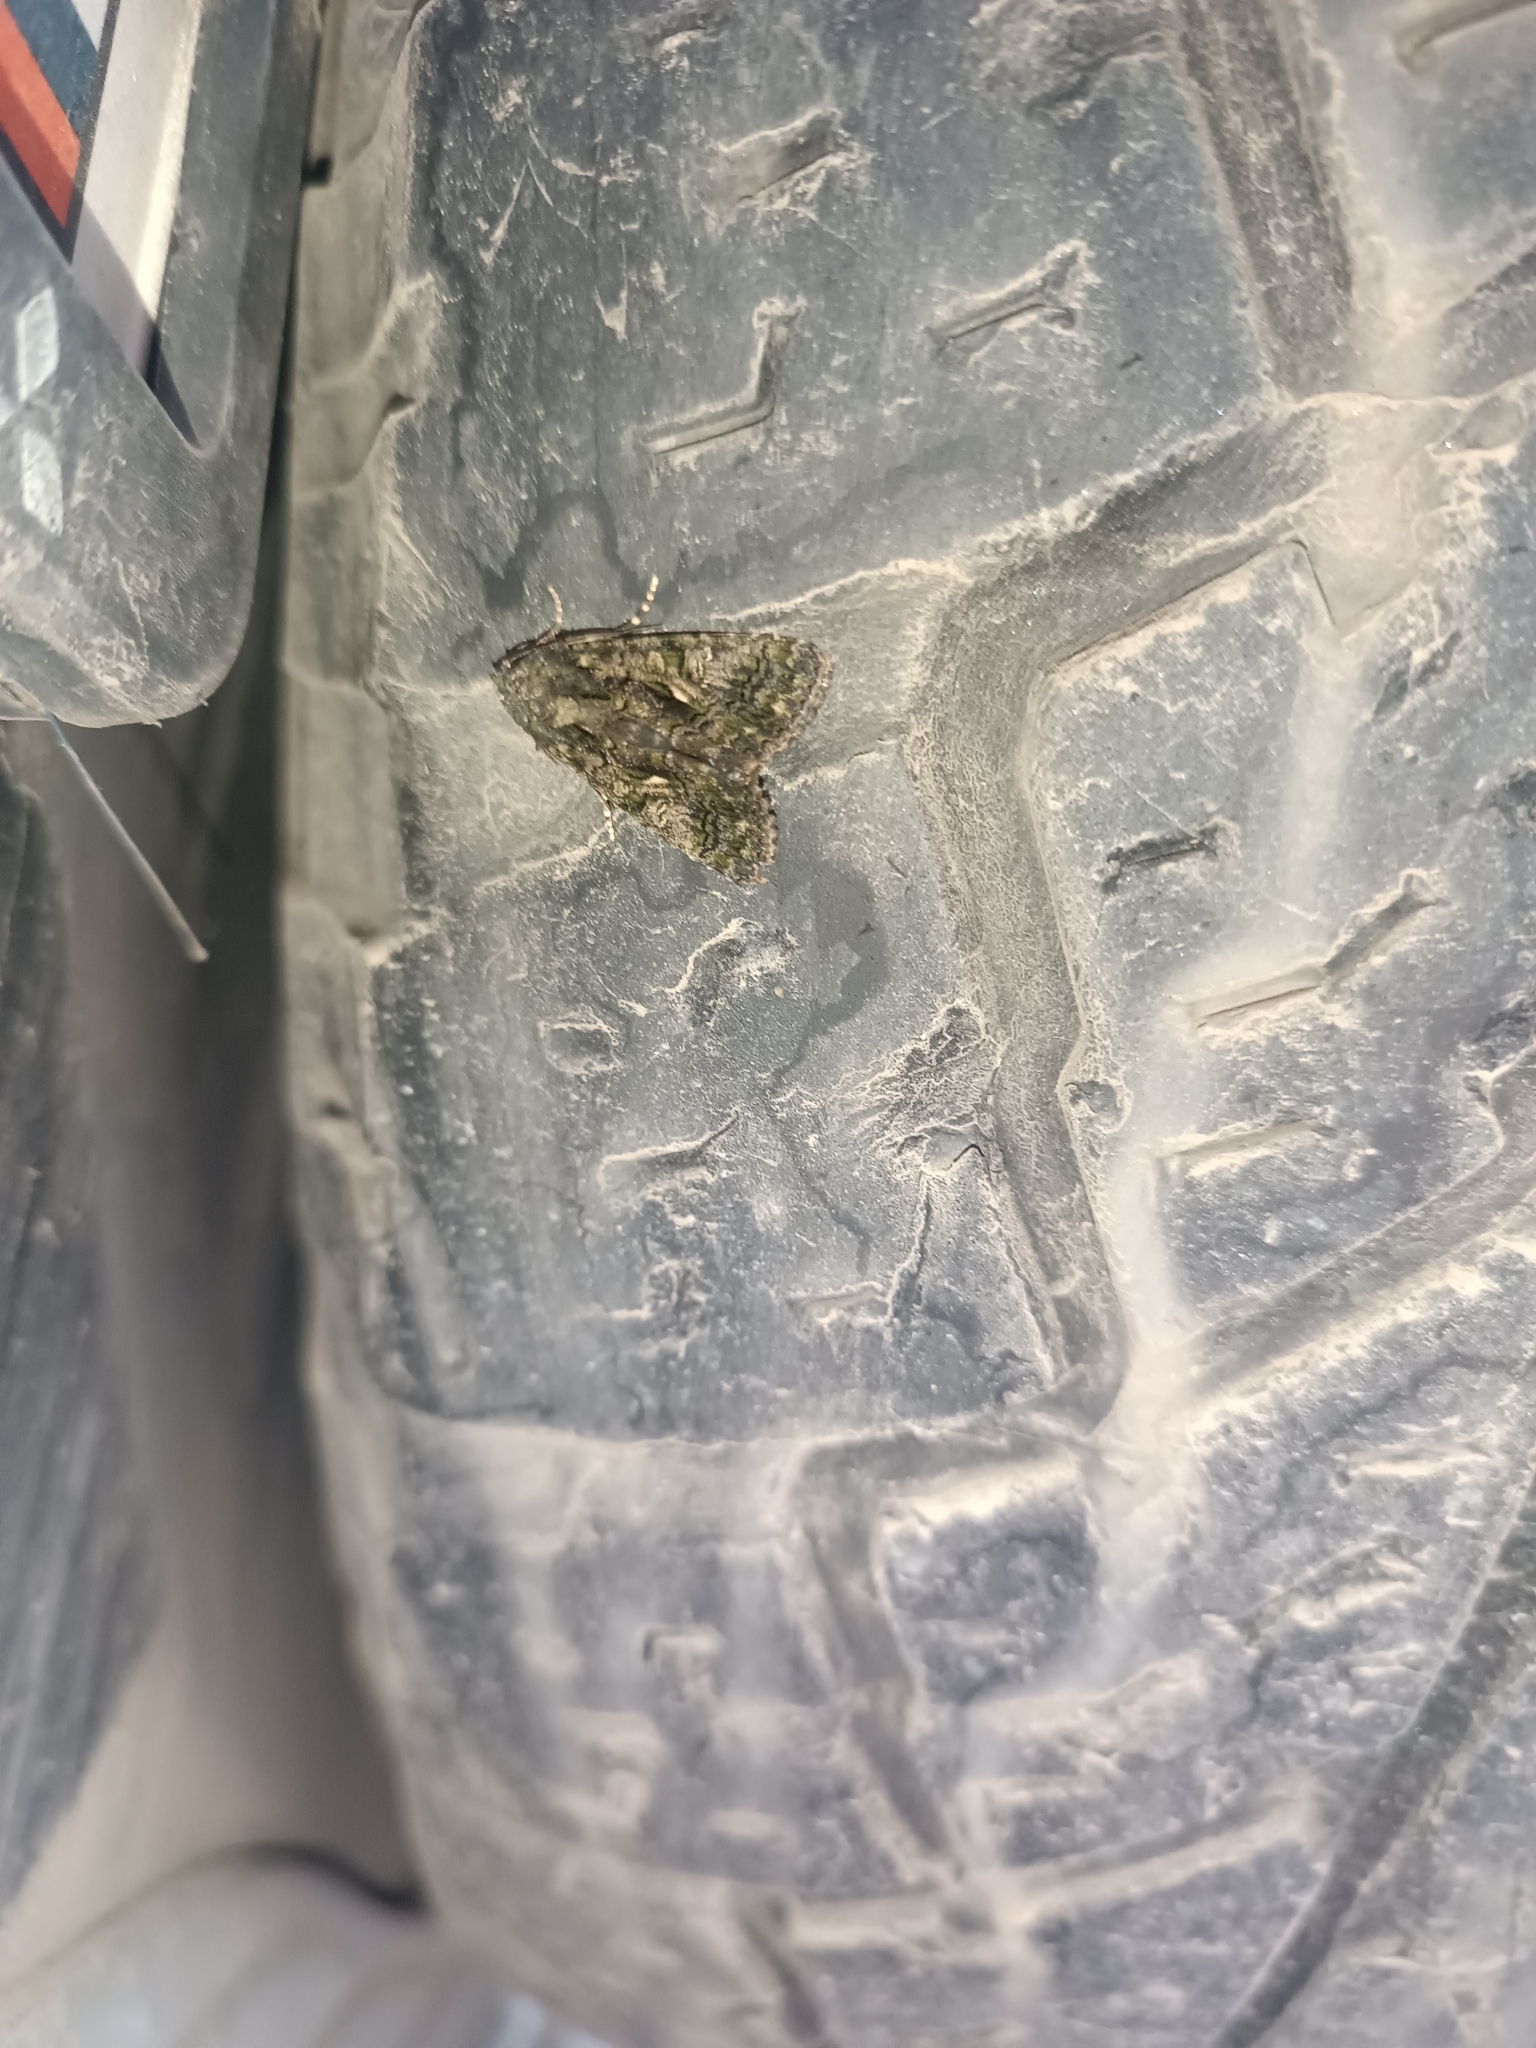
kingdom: Animalia
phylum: Arthropoda
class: Insecta
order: Lepidoptera
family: Noctuidae
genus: Aedia
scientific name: Aedia leucomelas
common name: Sorcerer
